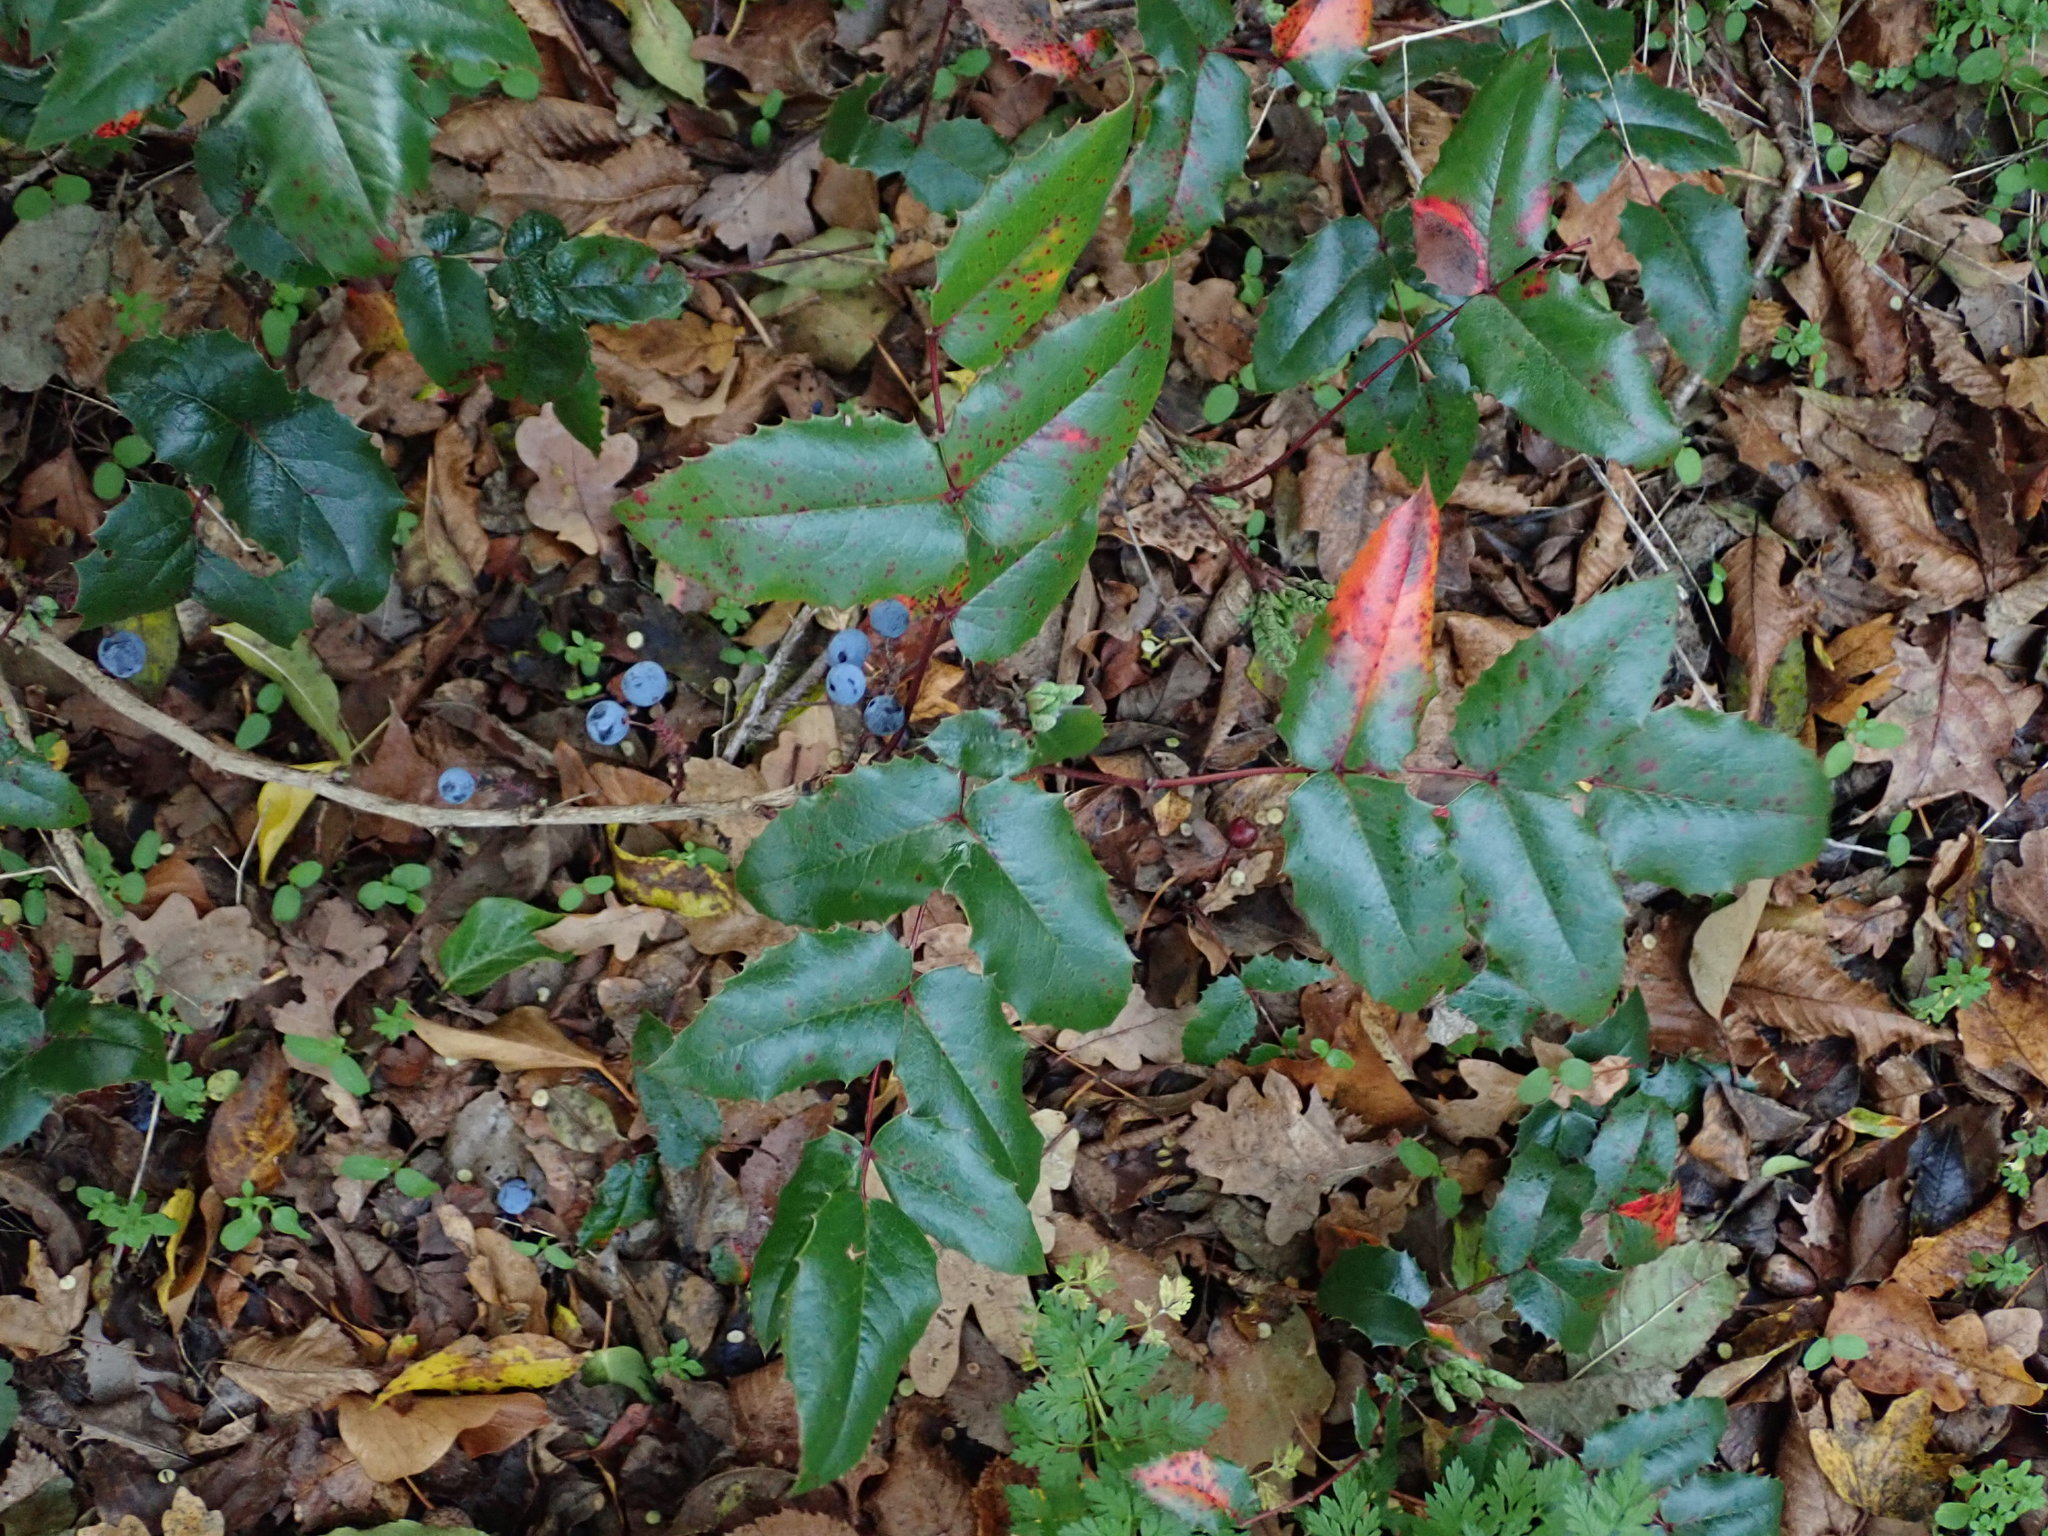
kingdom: Plantae
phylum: Tracheophyta
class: Magnoliopsida
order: Ranunculales
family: Berberidaceae
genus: Mahonia
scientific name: Mahonia aquifolium
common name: Oregon-grape
